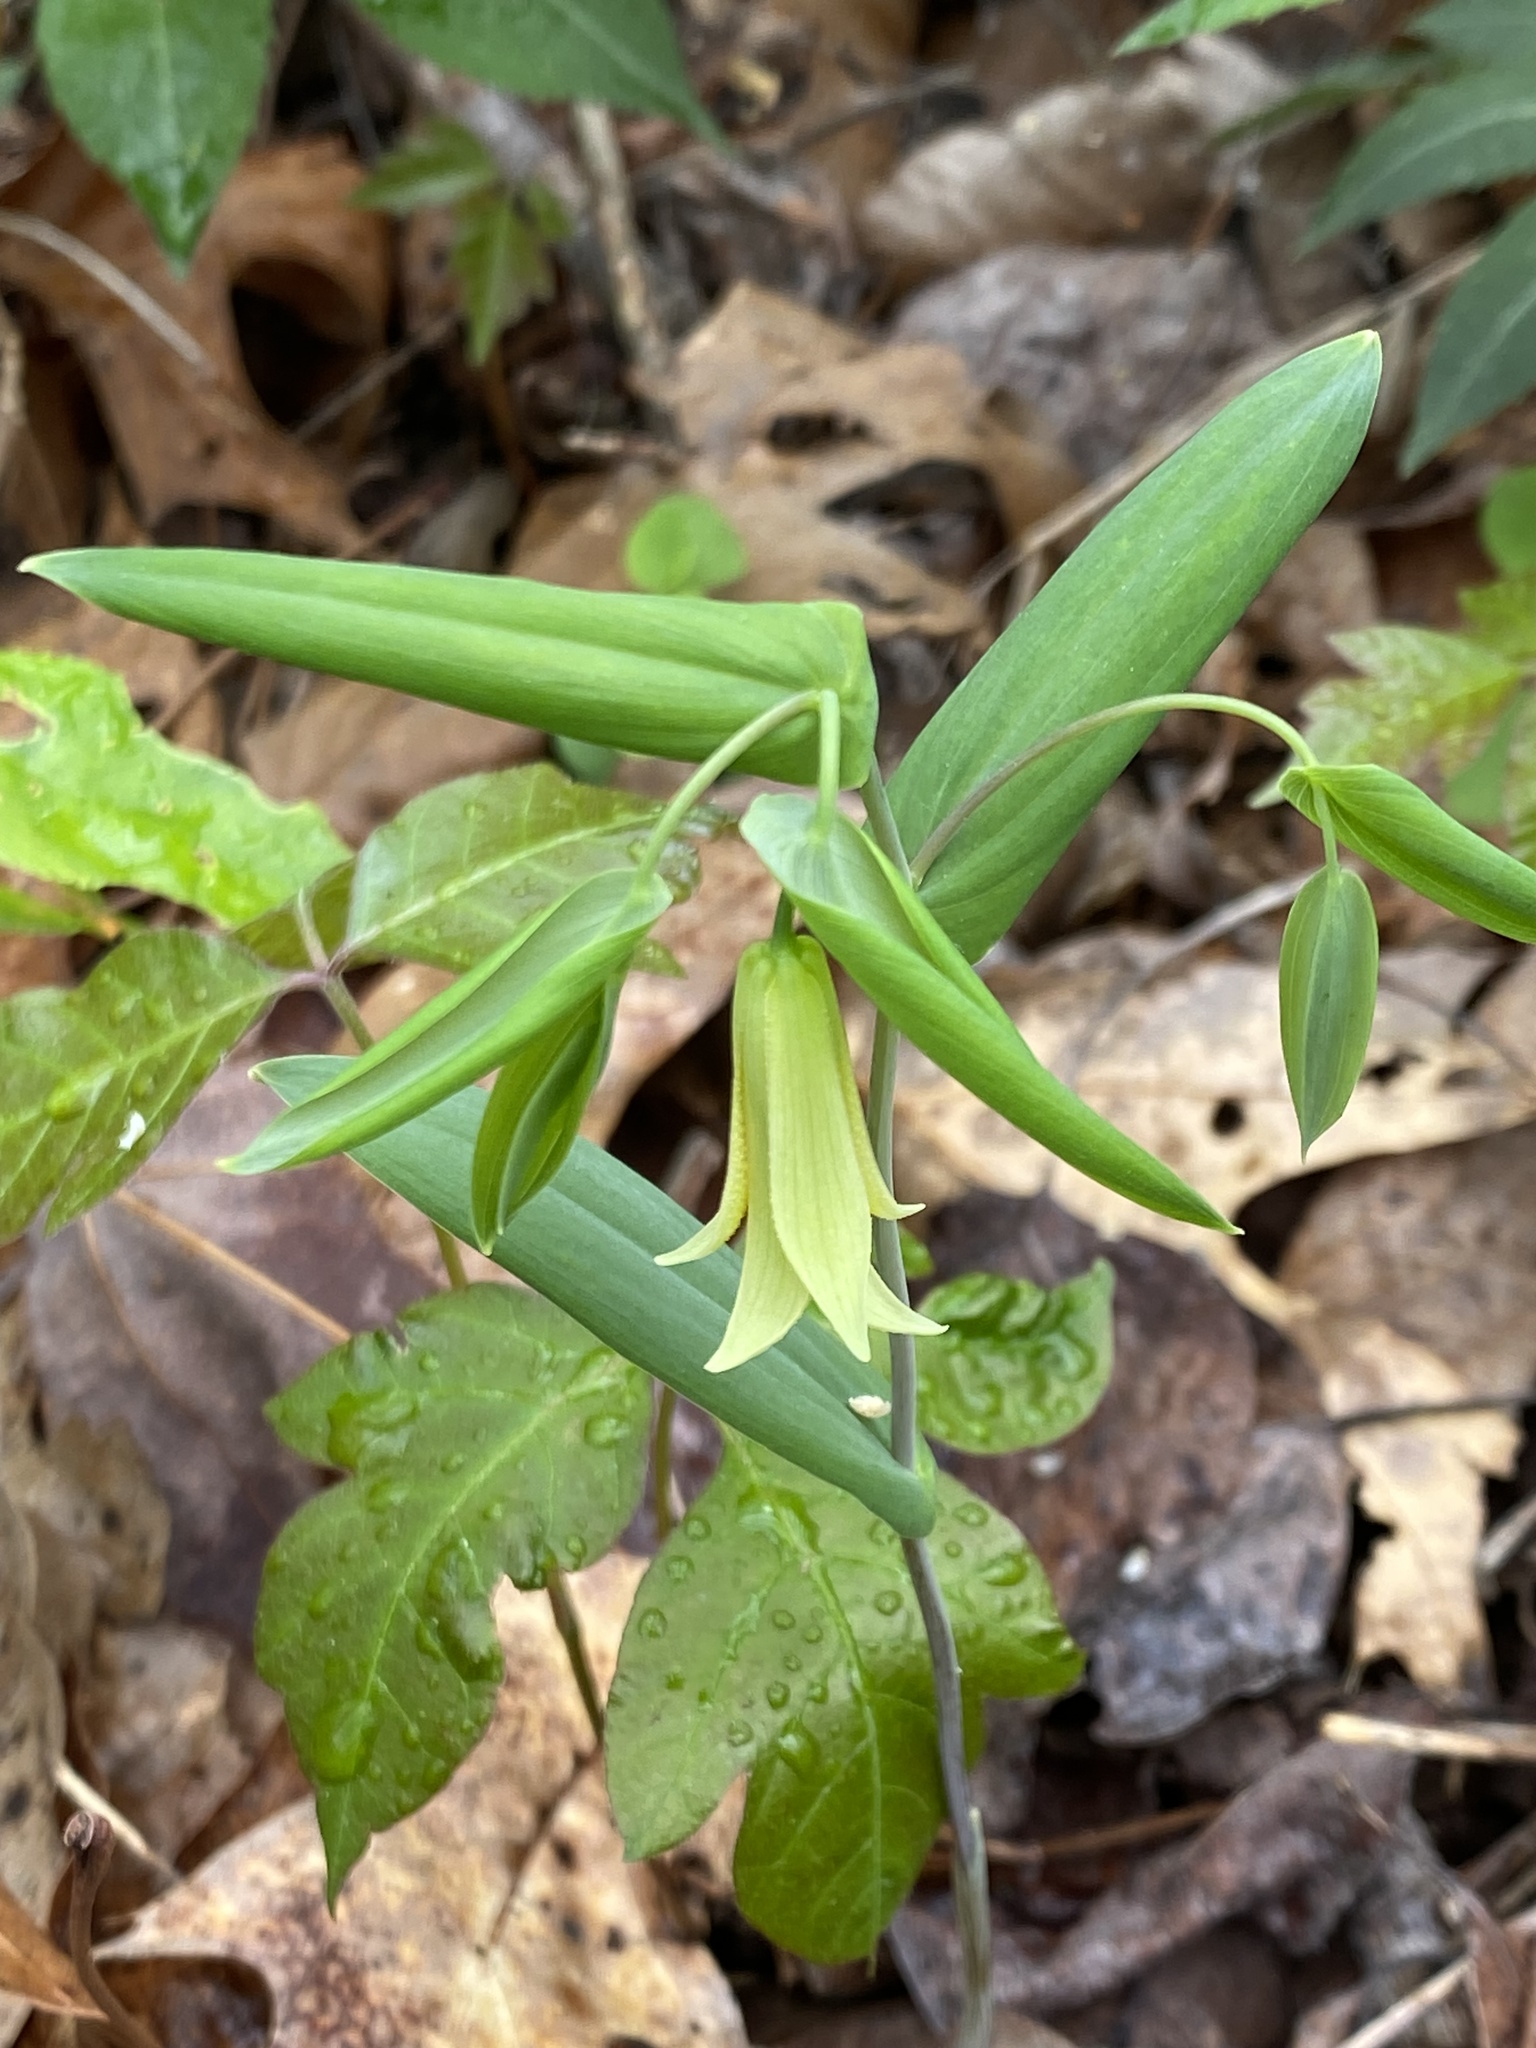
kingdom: Plantae
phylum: Tracheophyta
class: Liliopsida
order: Liliales
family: Colchicaceae
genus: Uvularia
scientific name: Uvularia perfoliata
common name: Perfoliate bellwort
